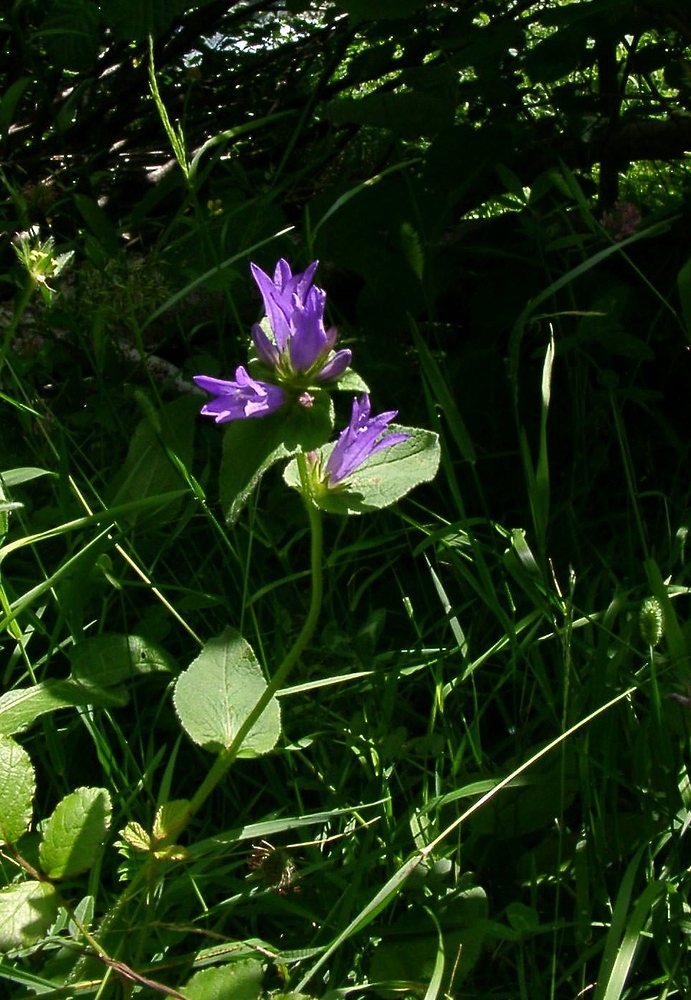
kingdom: Plantae
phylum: Tracheophyta
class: Magnoliopsida
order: Asterales
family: Campanulaceae
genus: Campanula
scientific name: Campanula glomerata
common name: Clustered bellflower
